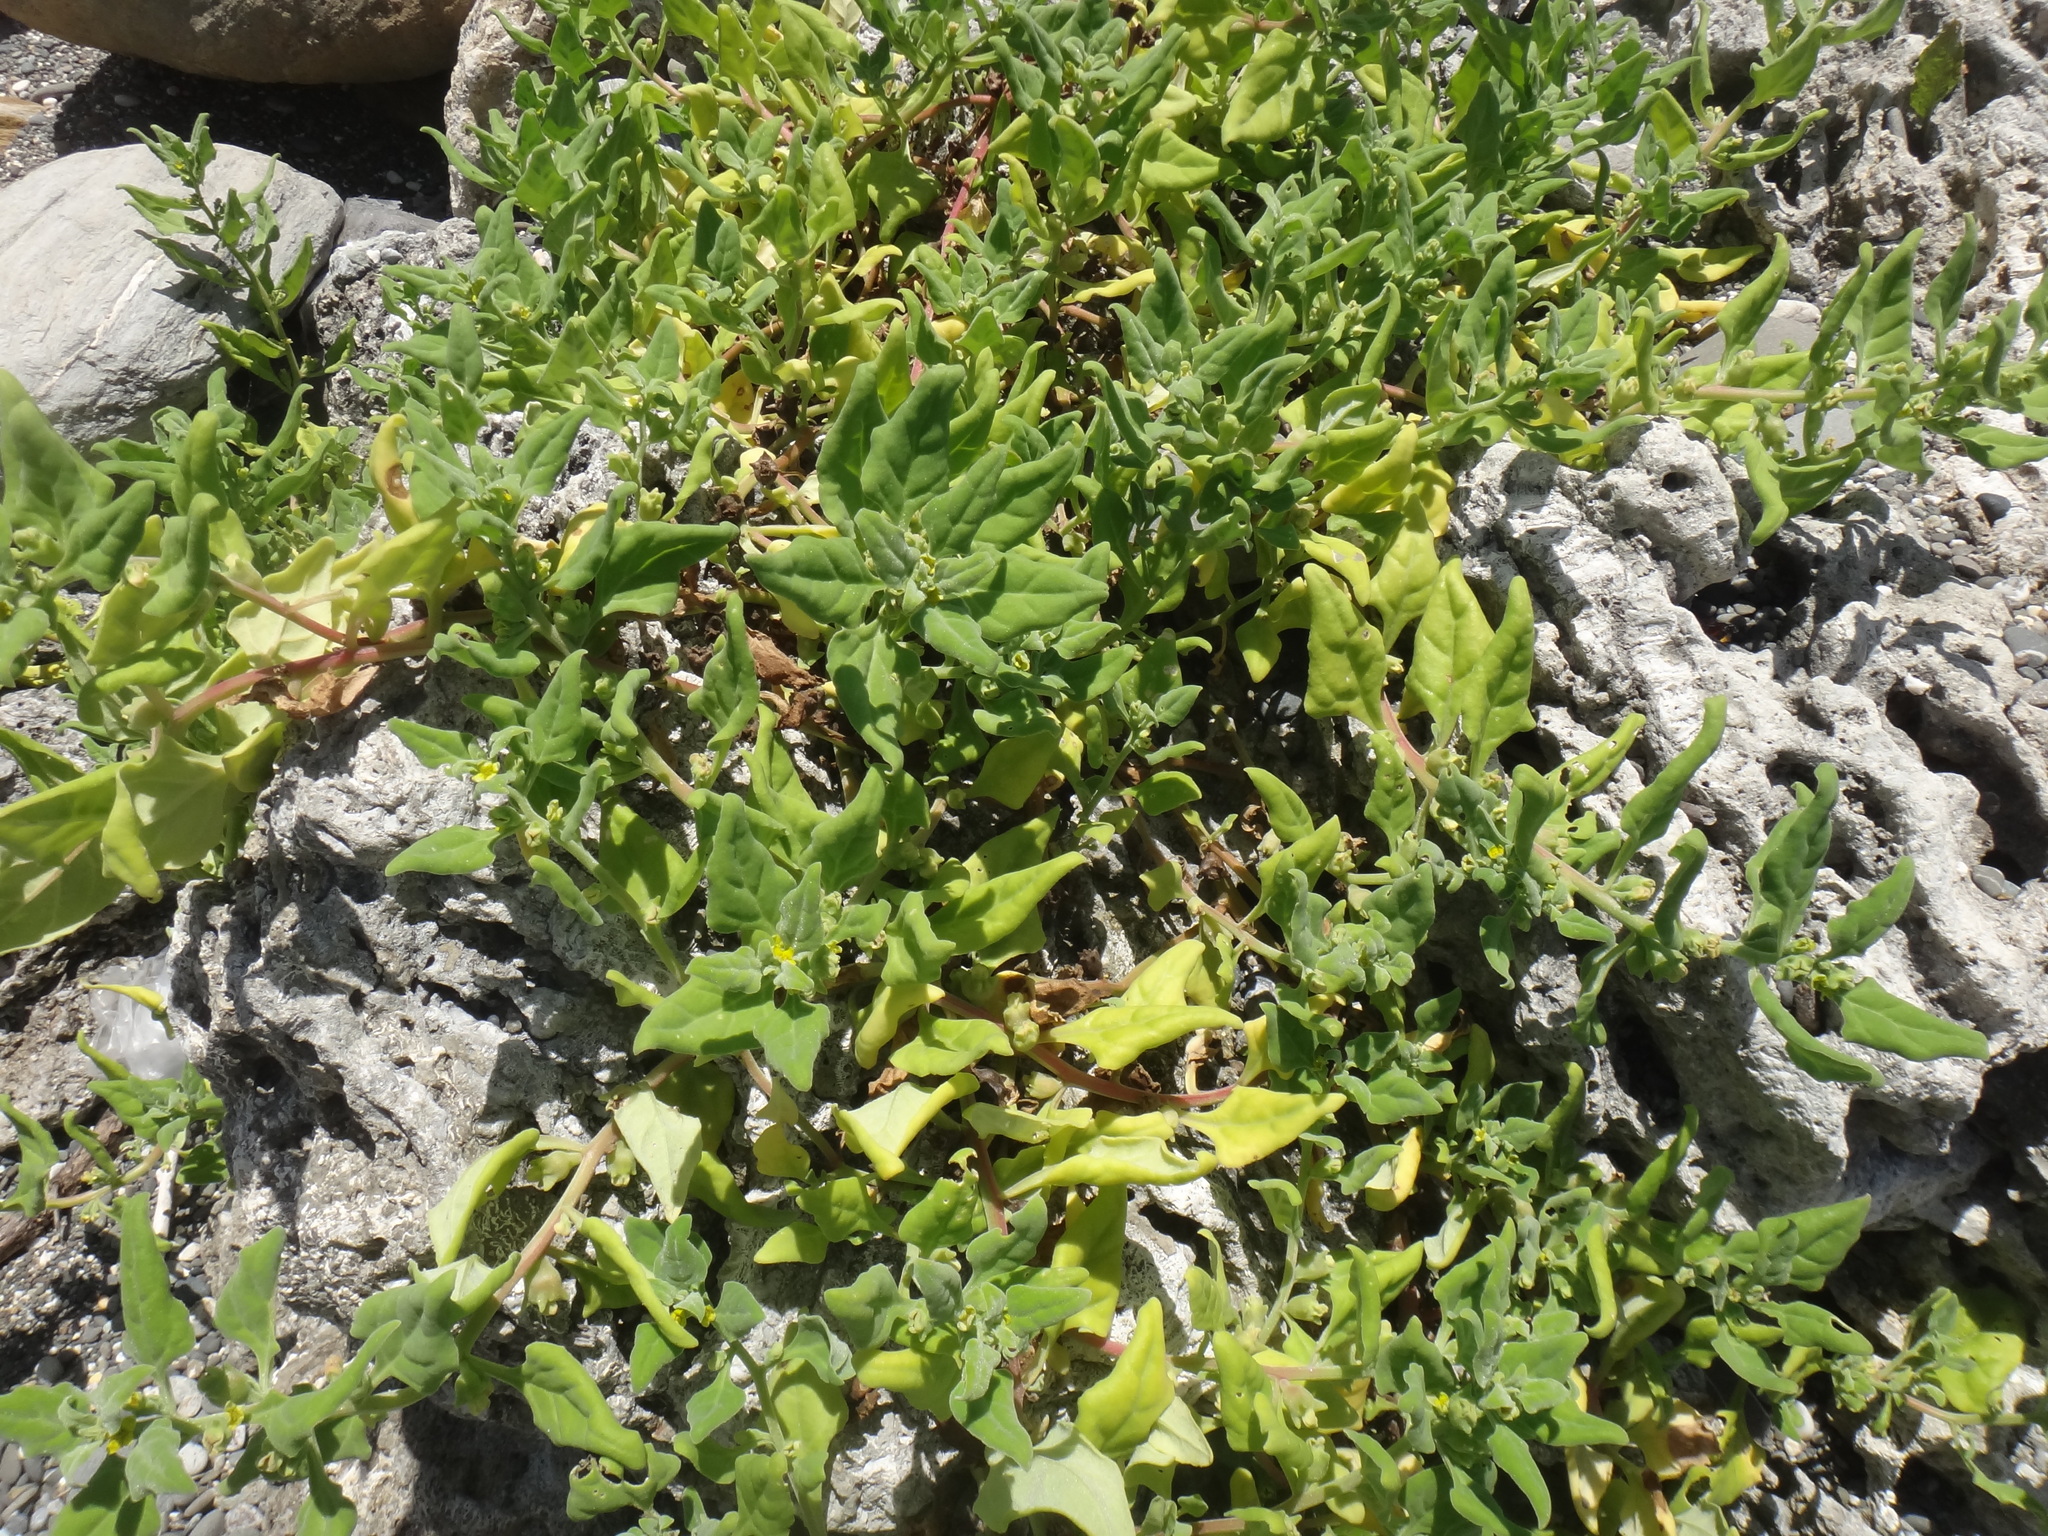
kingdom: Plantae
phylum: Tracheophyta
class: Magnoliopsida
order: Caryophyllales
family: Aizoaceae
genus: Tetragonia
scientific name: Tetragonia tetragonoides
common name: New zealand-spinach
